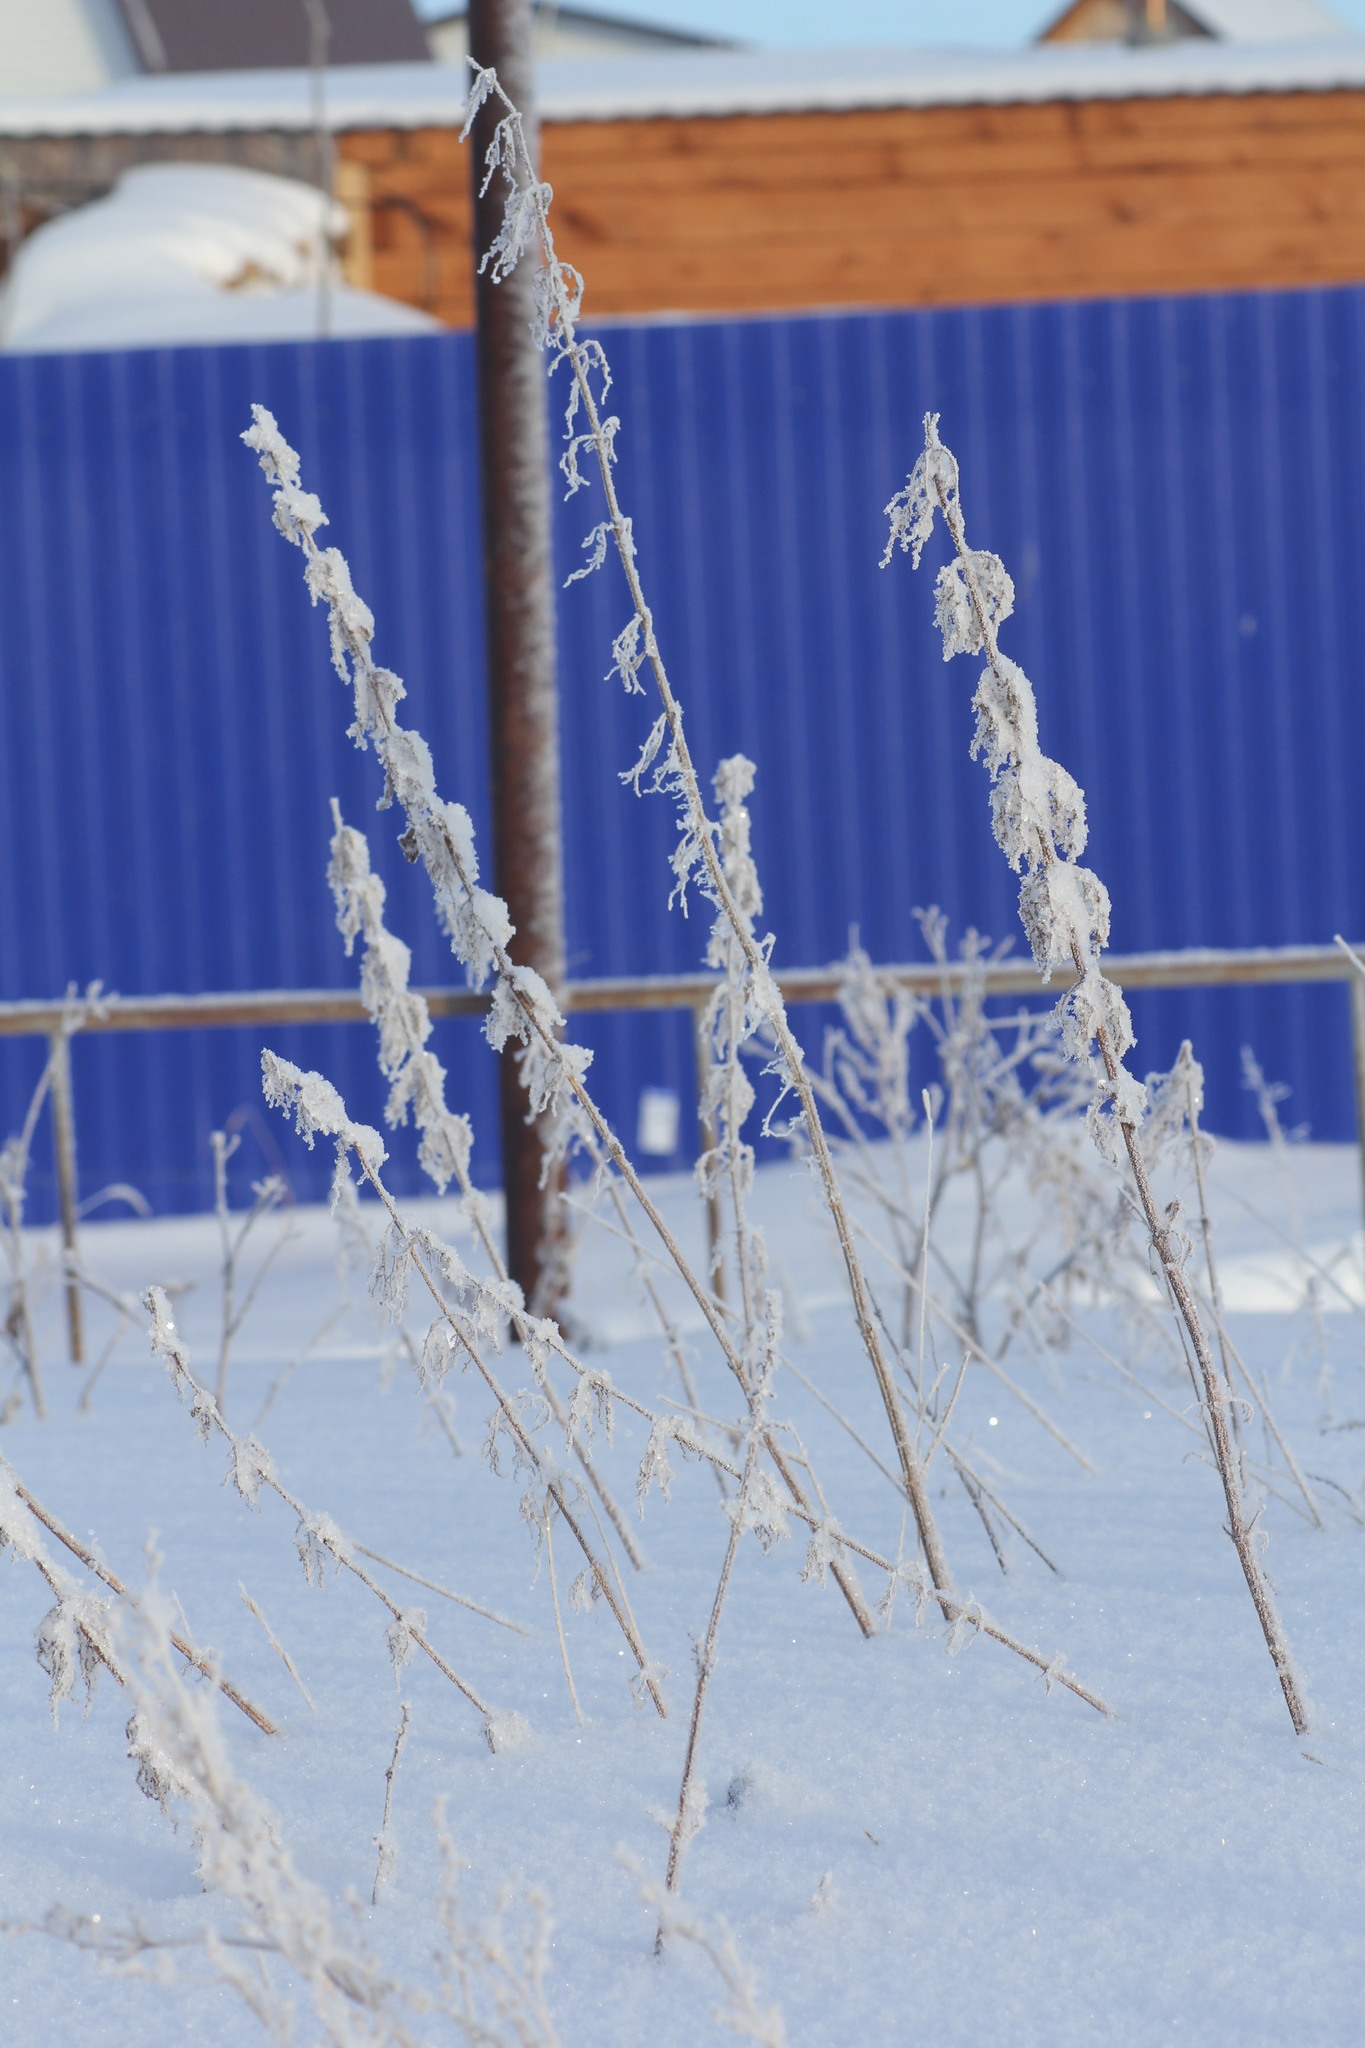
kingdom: Plantae
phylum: Tracheophyta
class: Magnoliopsida
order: Rosales
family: Urticaceae
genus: Urtica
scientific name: Urtica dioica
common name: Common nettle
